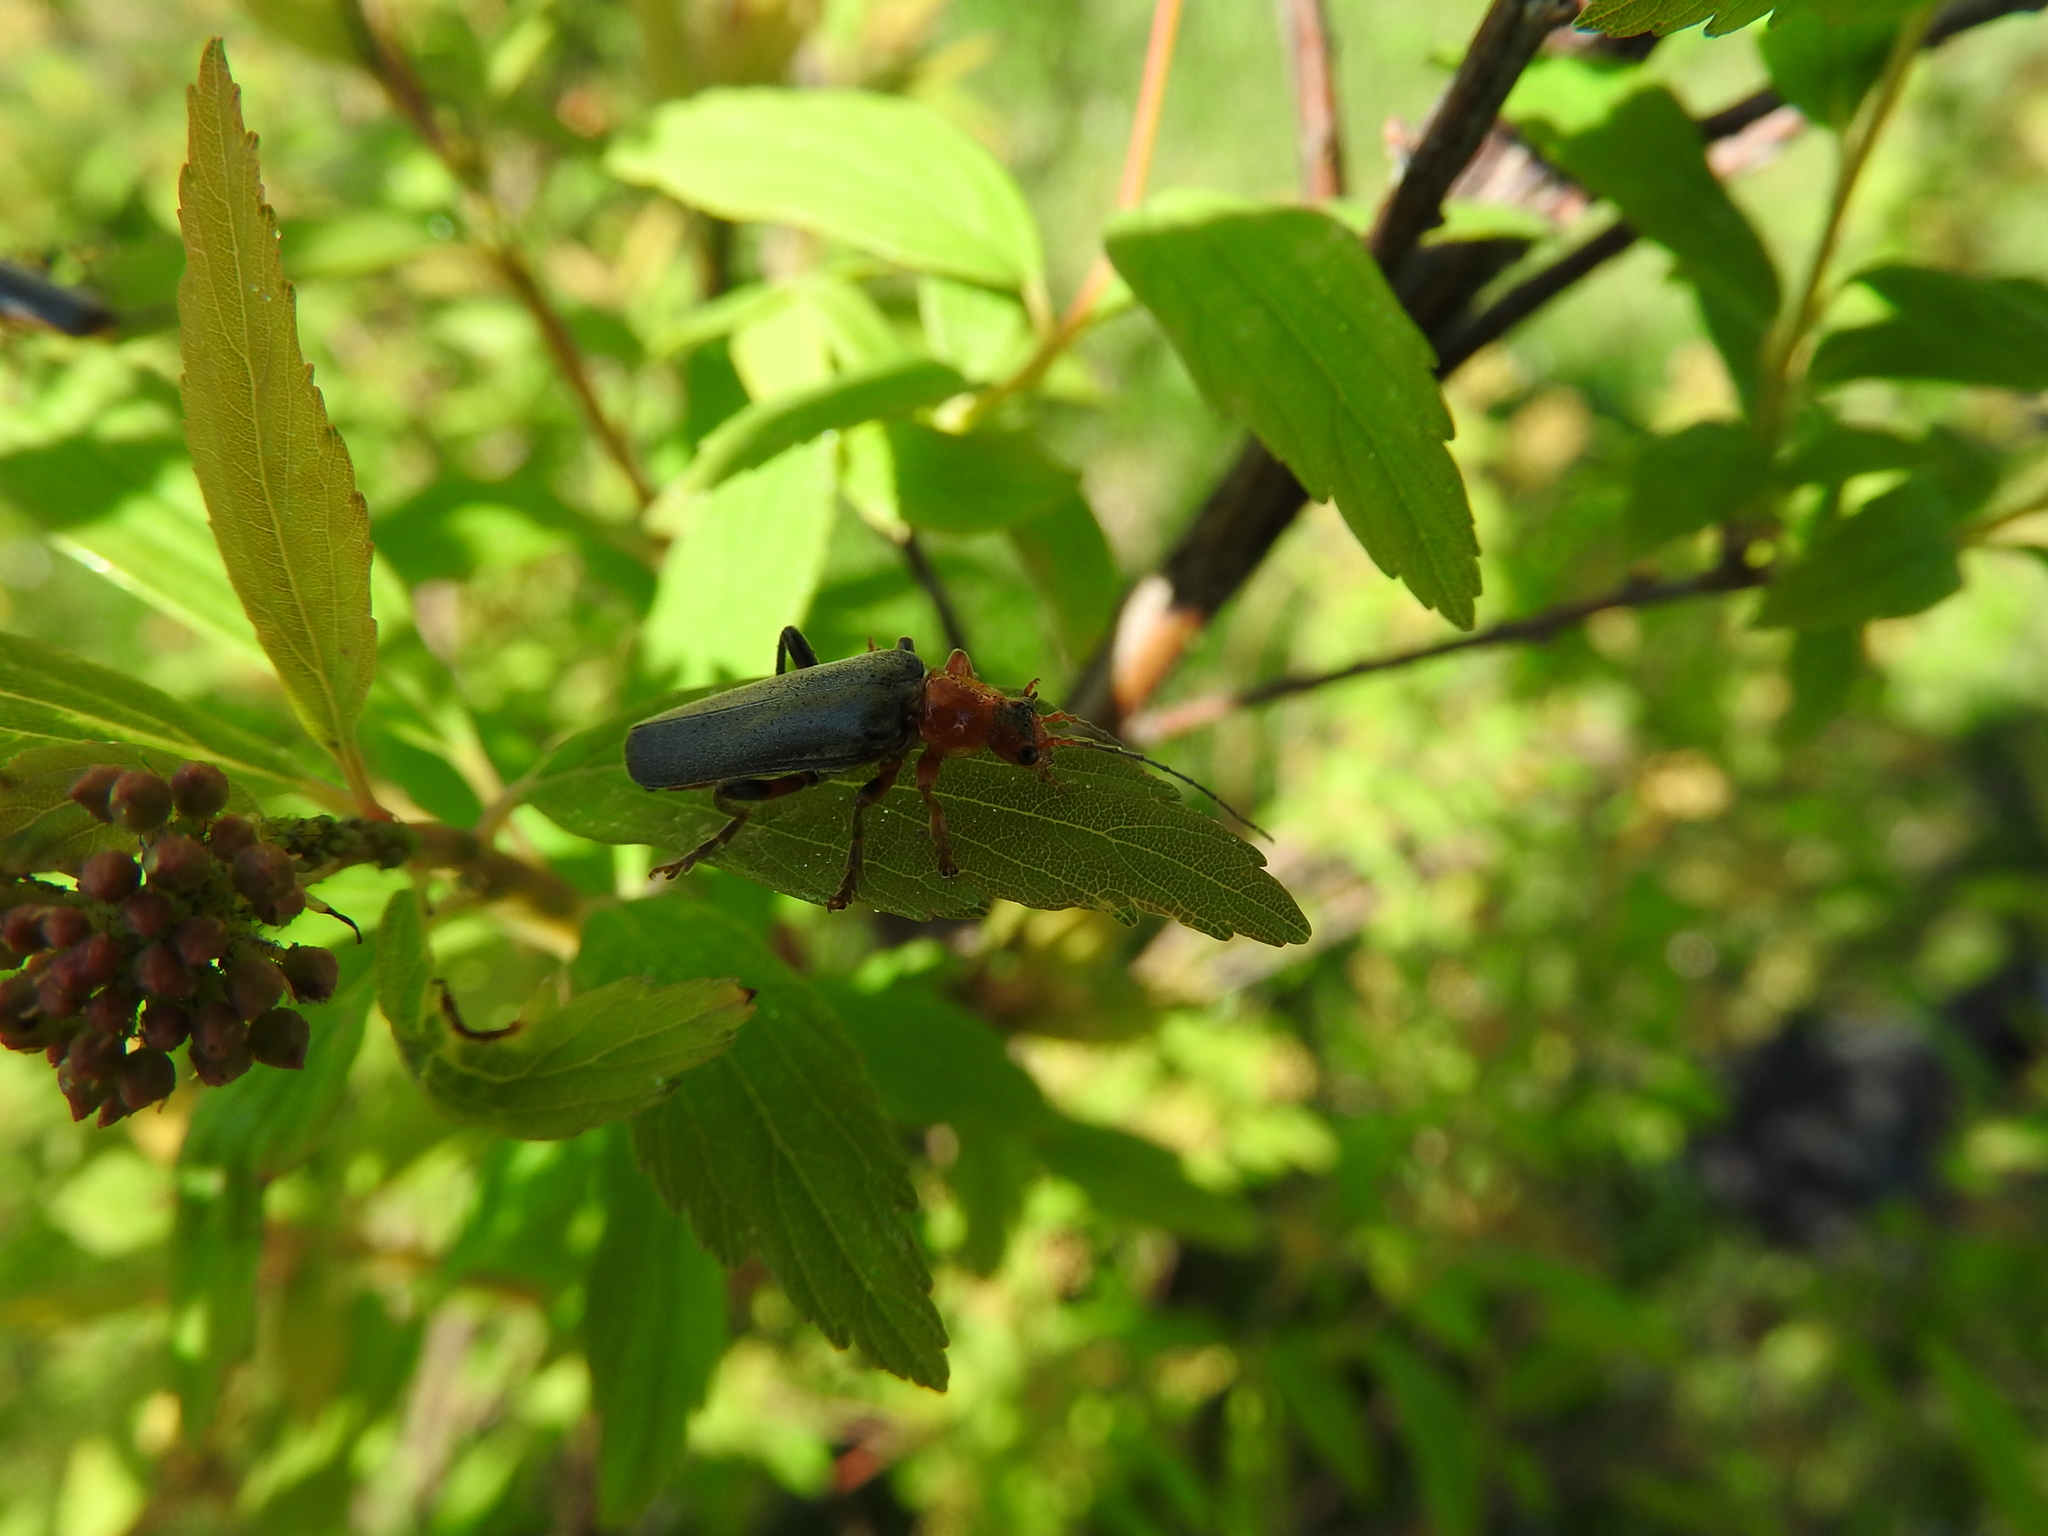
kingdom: Animalia
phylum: Arthropoda
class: Insecta
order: Coleoptera
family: Cantharidae
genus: Cantharis
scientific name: Cantharis livida
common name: Livid soldier beetle
